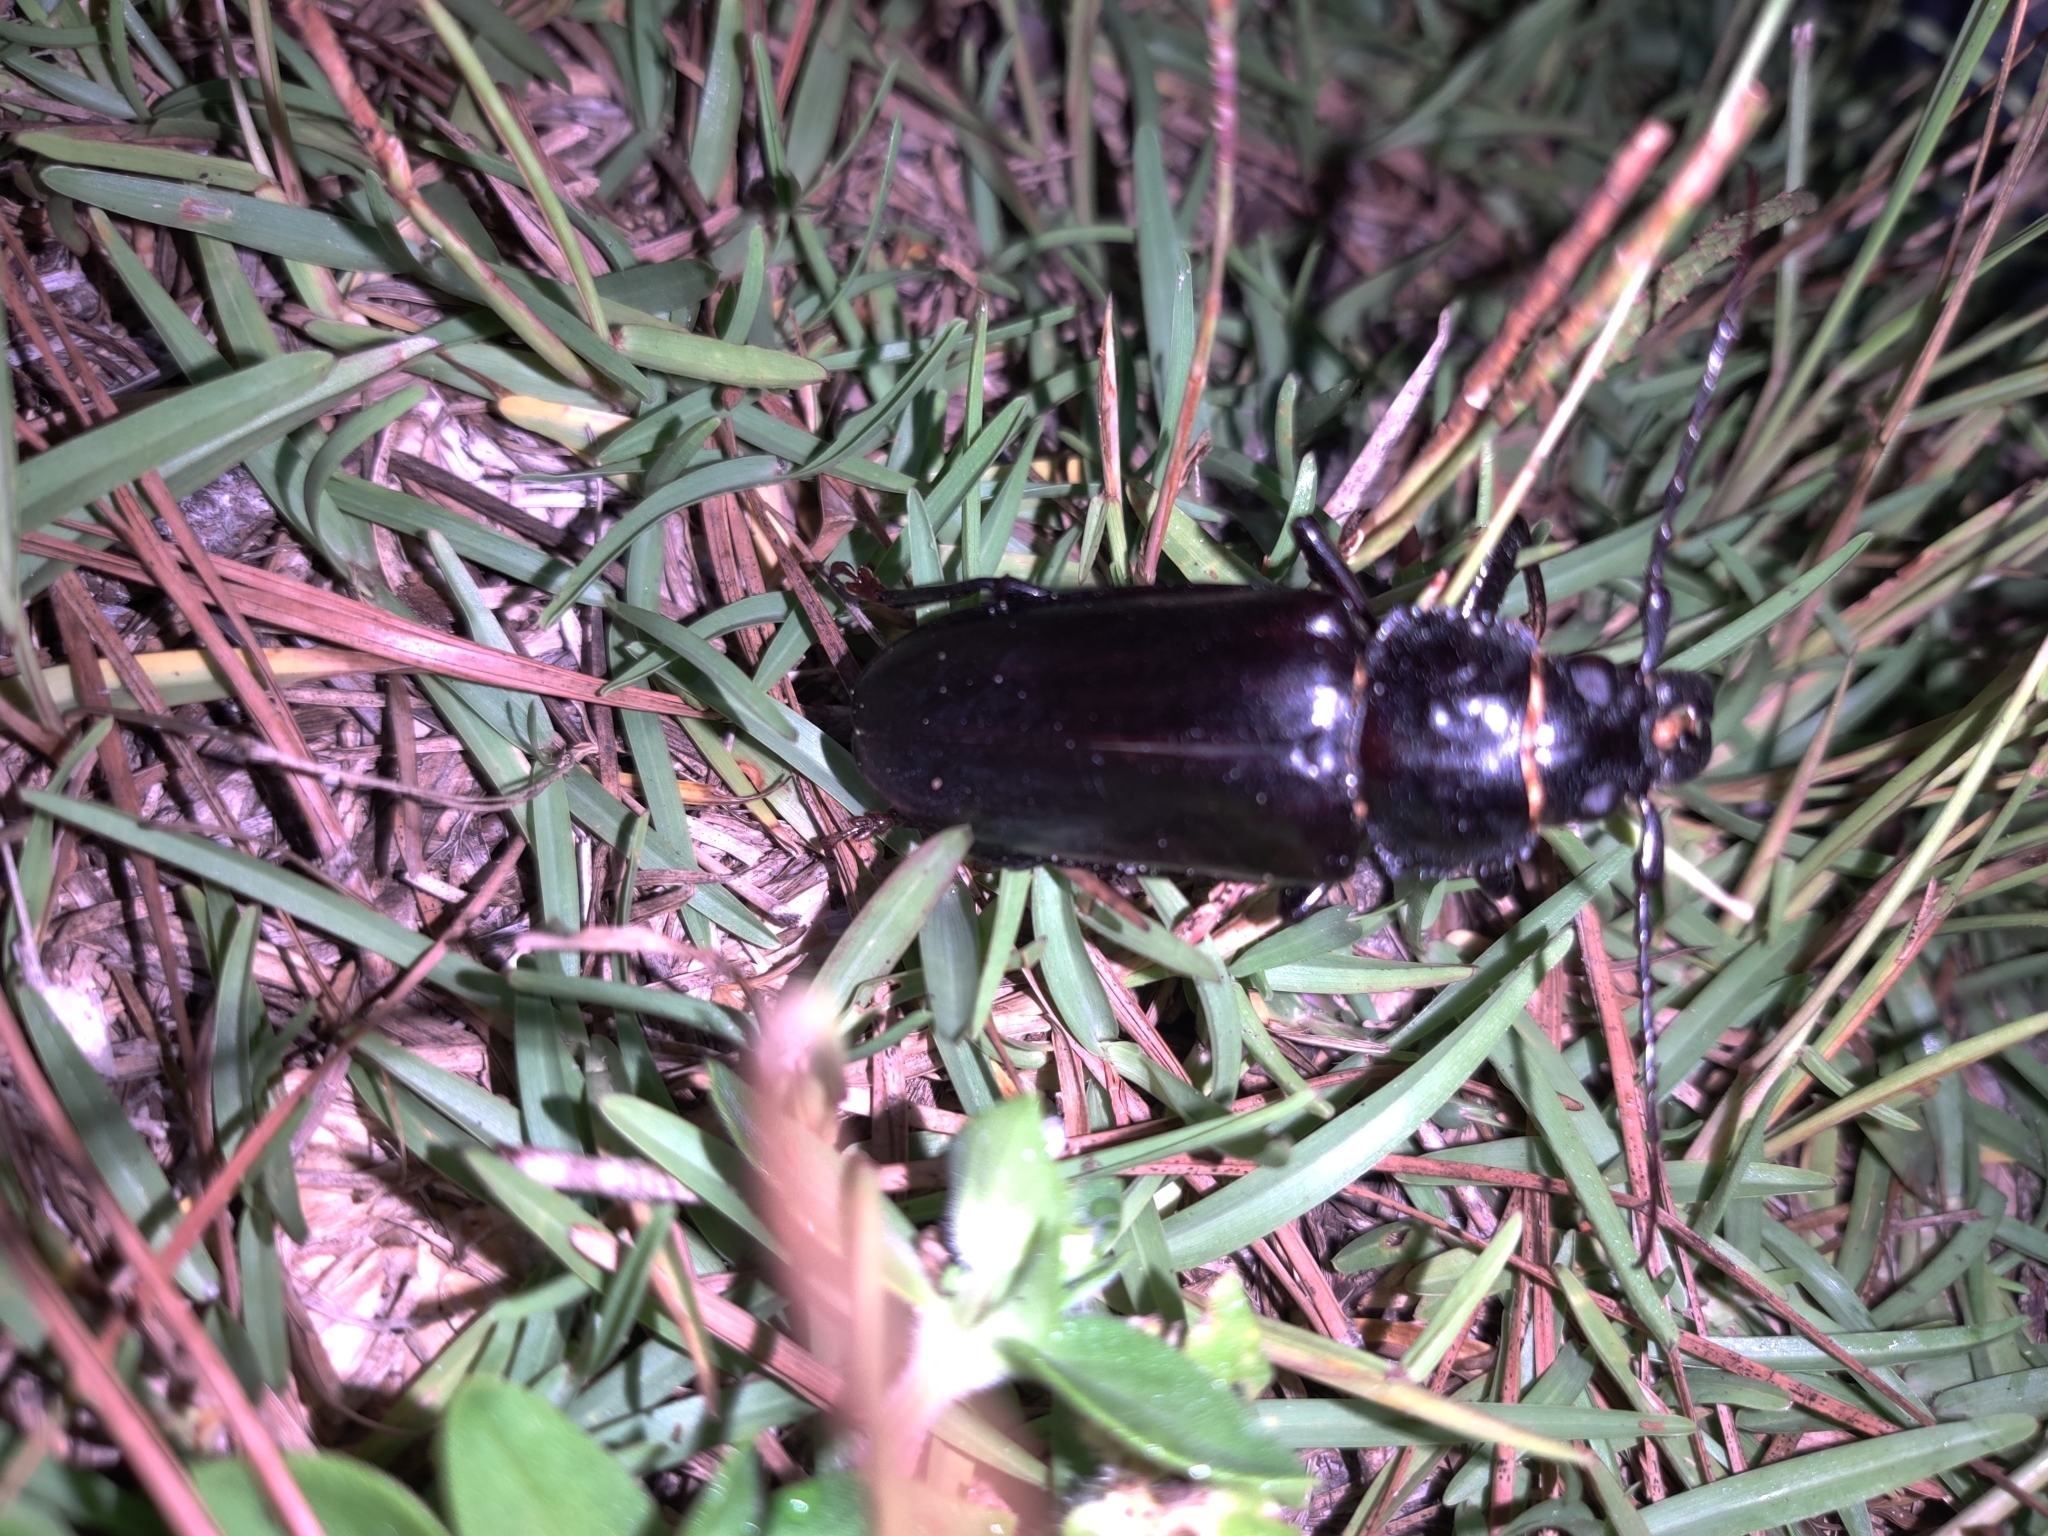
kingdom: Animalia
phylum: Arthropoda
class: Insecta
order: Coleoptera
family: Cerambycidae
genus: Archodontes
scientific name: Archodontes melanopus
